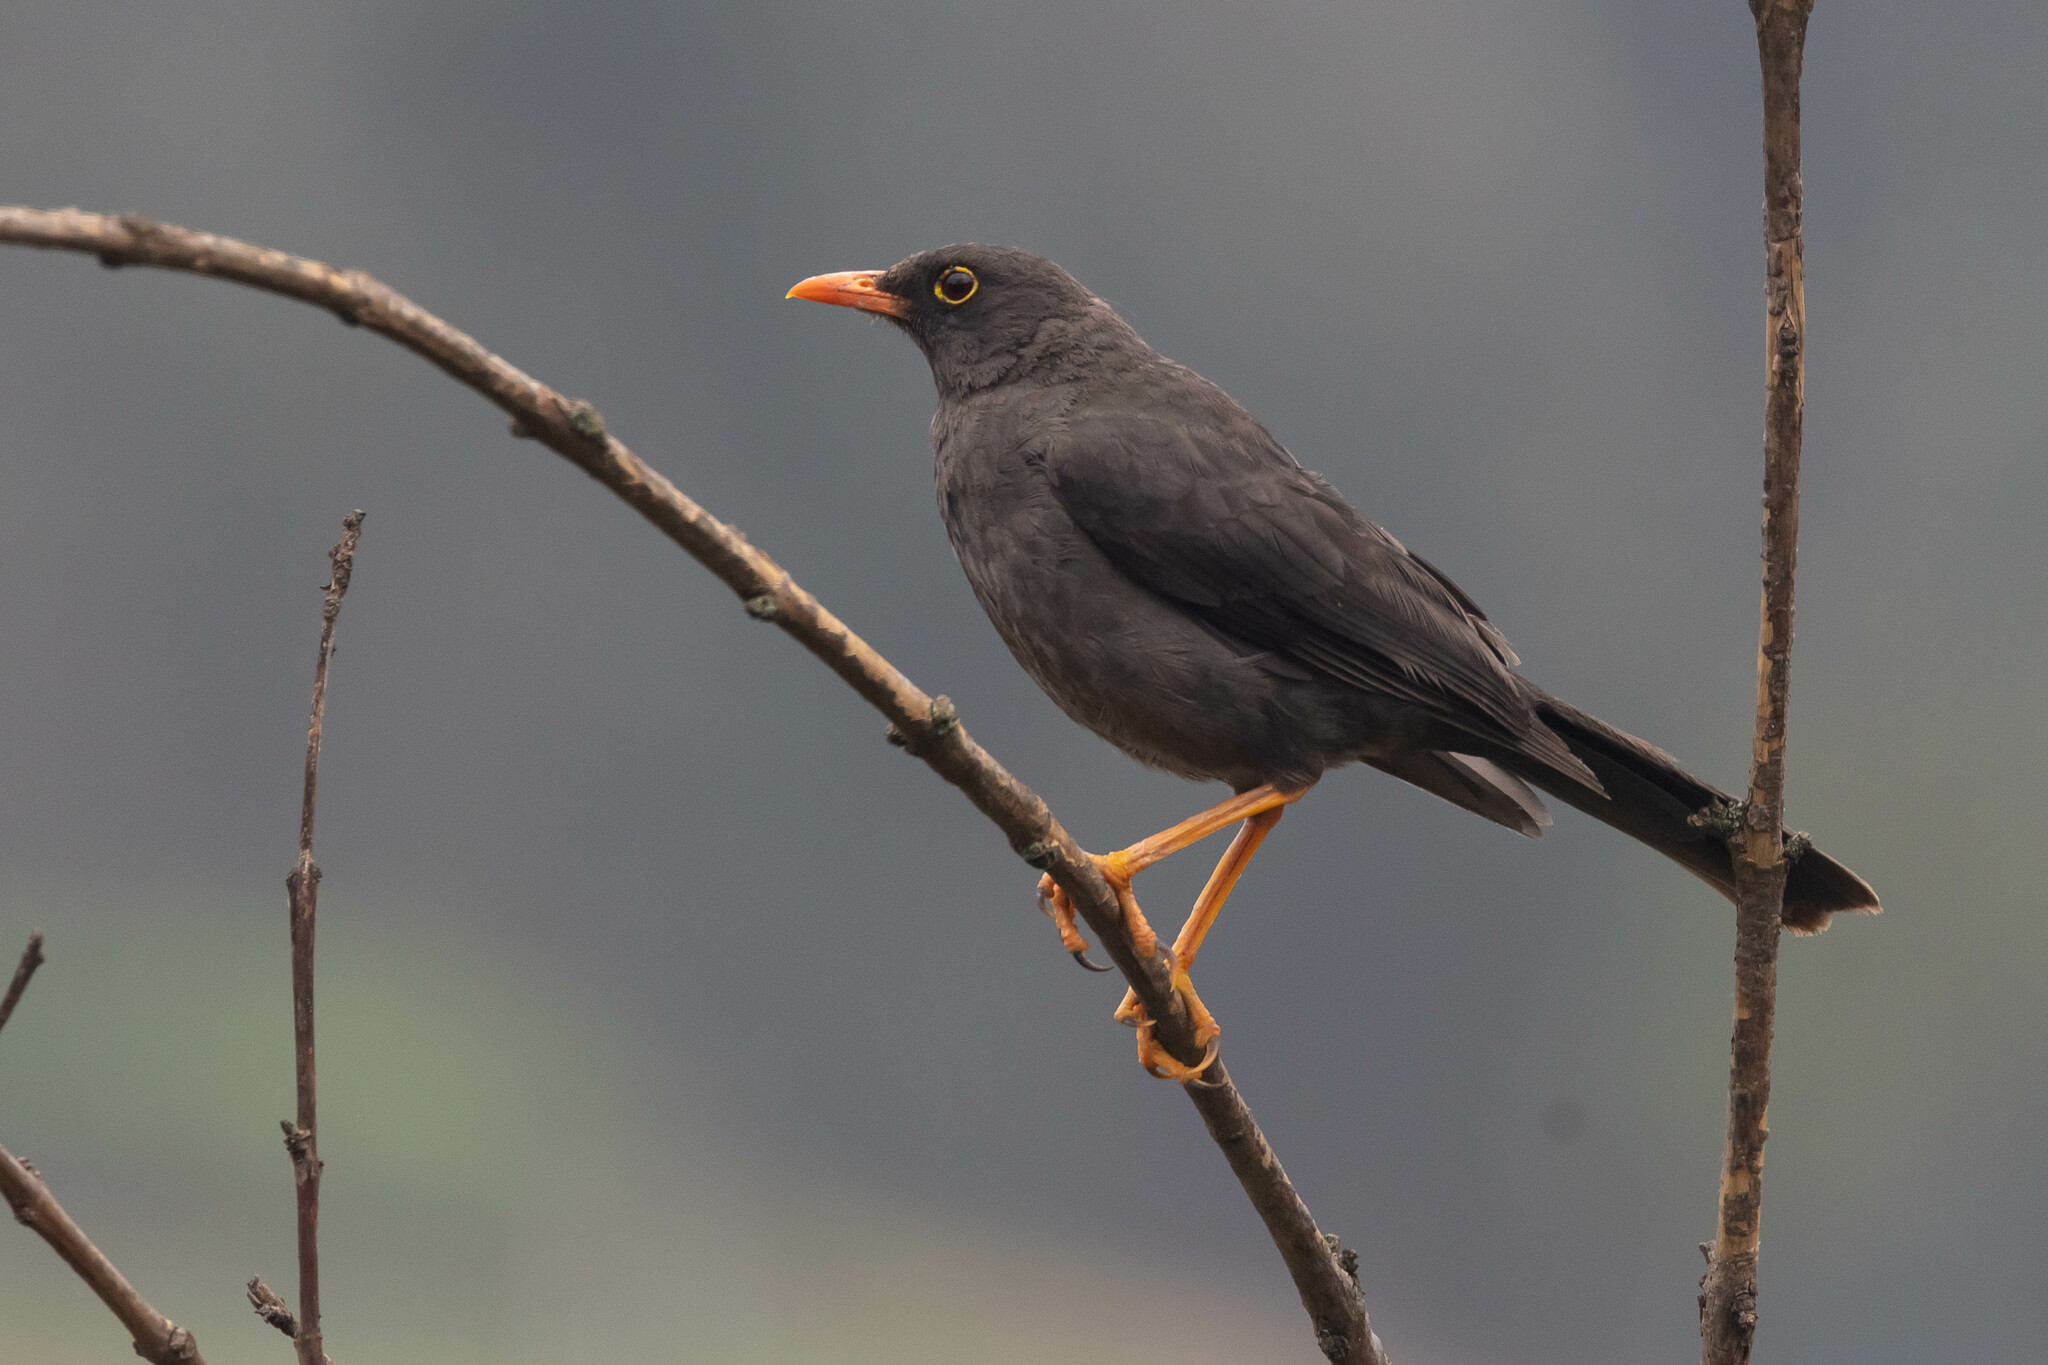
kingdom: Animalia
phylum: Chordata
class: Aves
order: Passeriformes
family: Turdidae
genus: Turdus
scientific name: Turdus fuscater
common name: Great thrush
